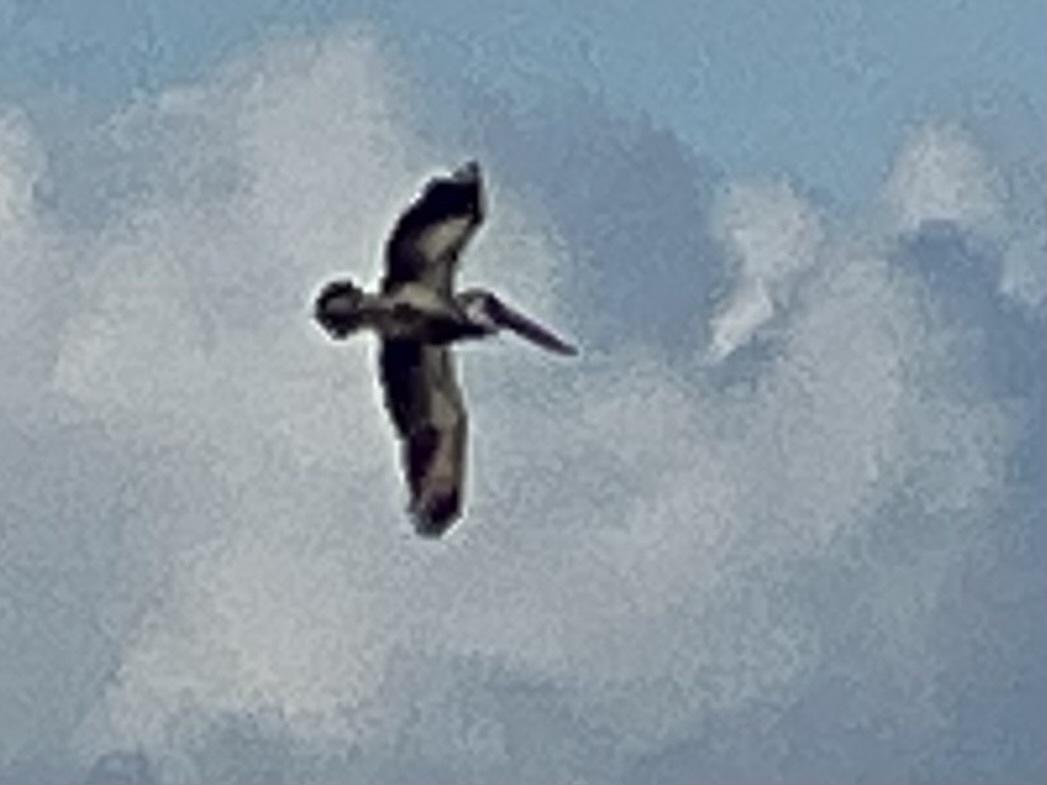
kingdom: Animalia
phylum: Chordata
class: Aves
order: Pelecaniformes
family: Pelecanidae
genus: Pelecanus
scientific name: Pelecanus occidentalis
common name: Brown pelican
